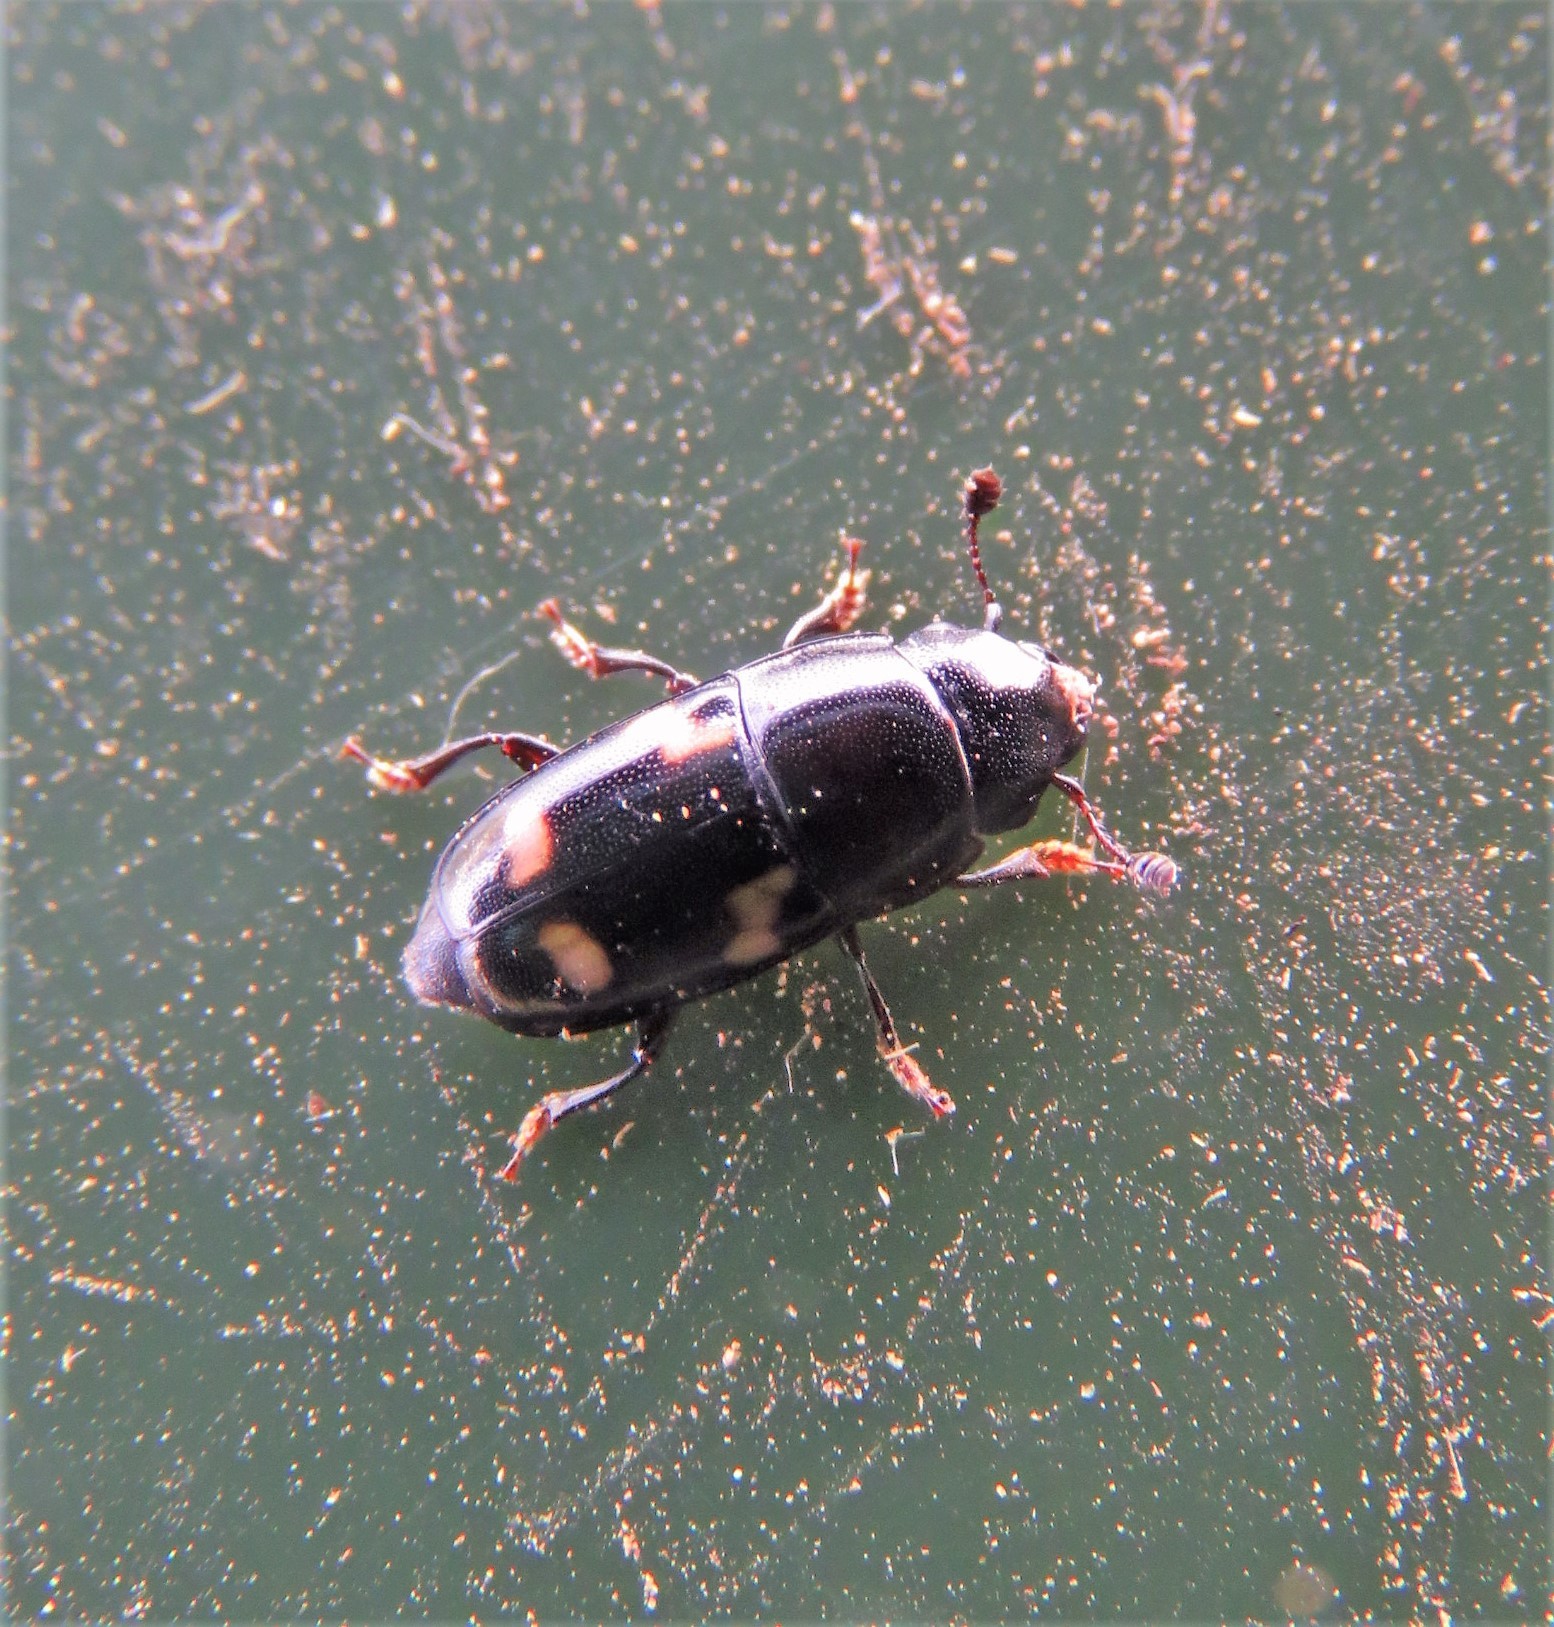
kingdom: Animalia
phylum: Arthropoda
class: Insecta
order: Coleoptera
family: Nitidulidae
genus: Glischrochilus
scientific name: Glischrochilus quadrisignatus
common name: Picnic beetle
